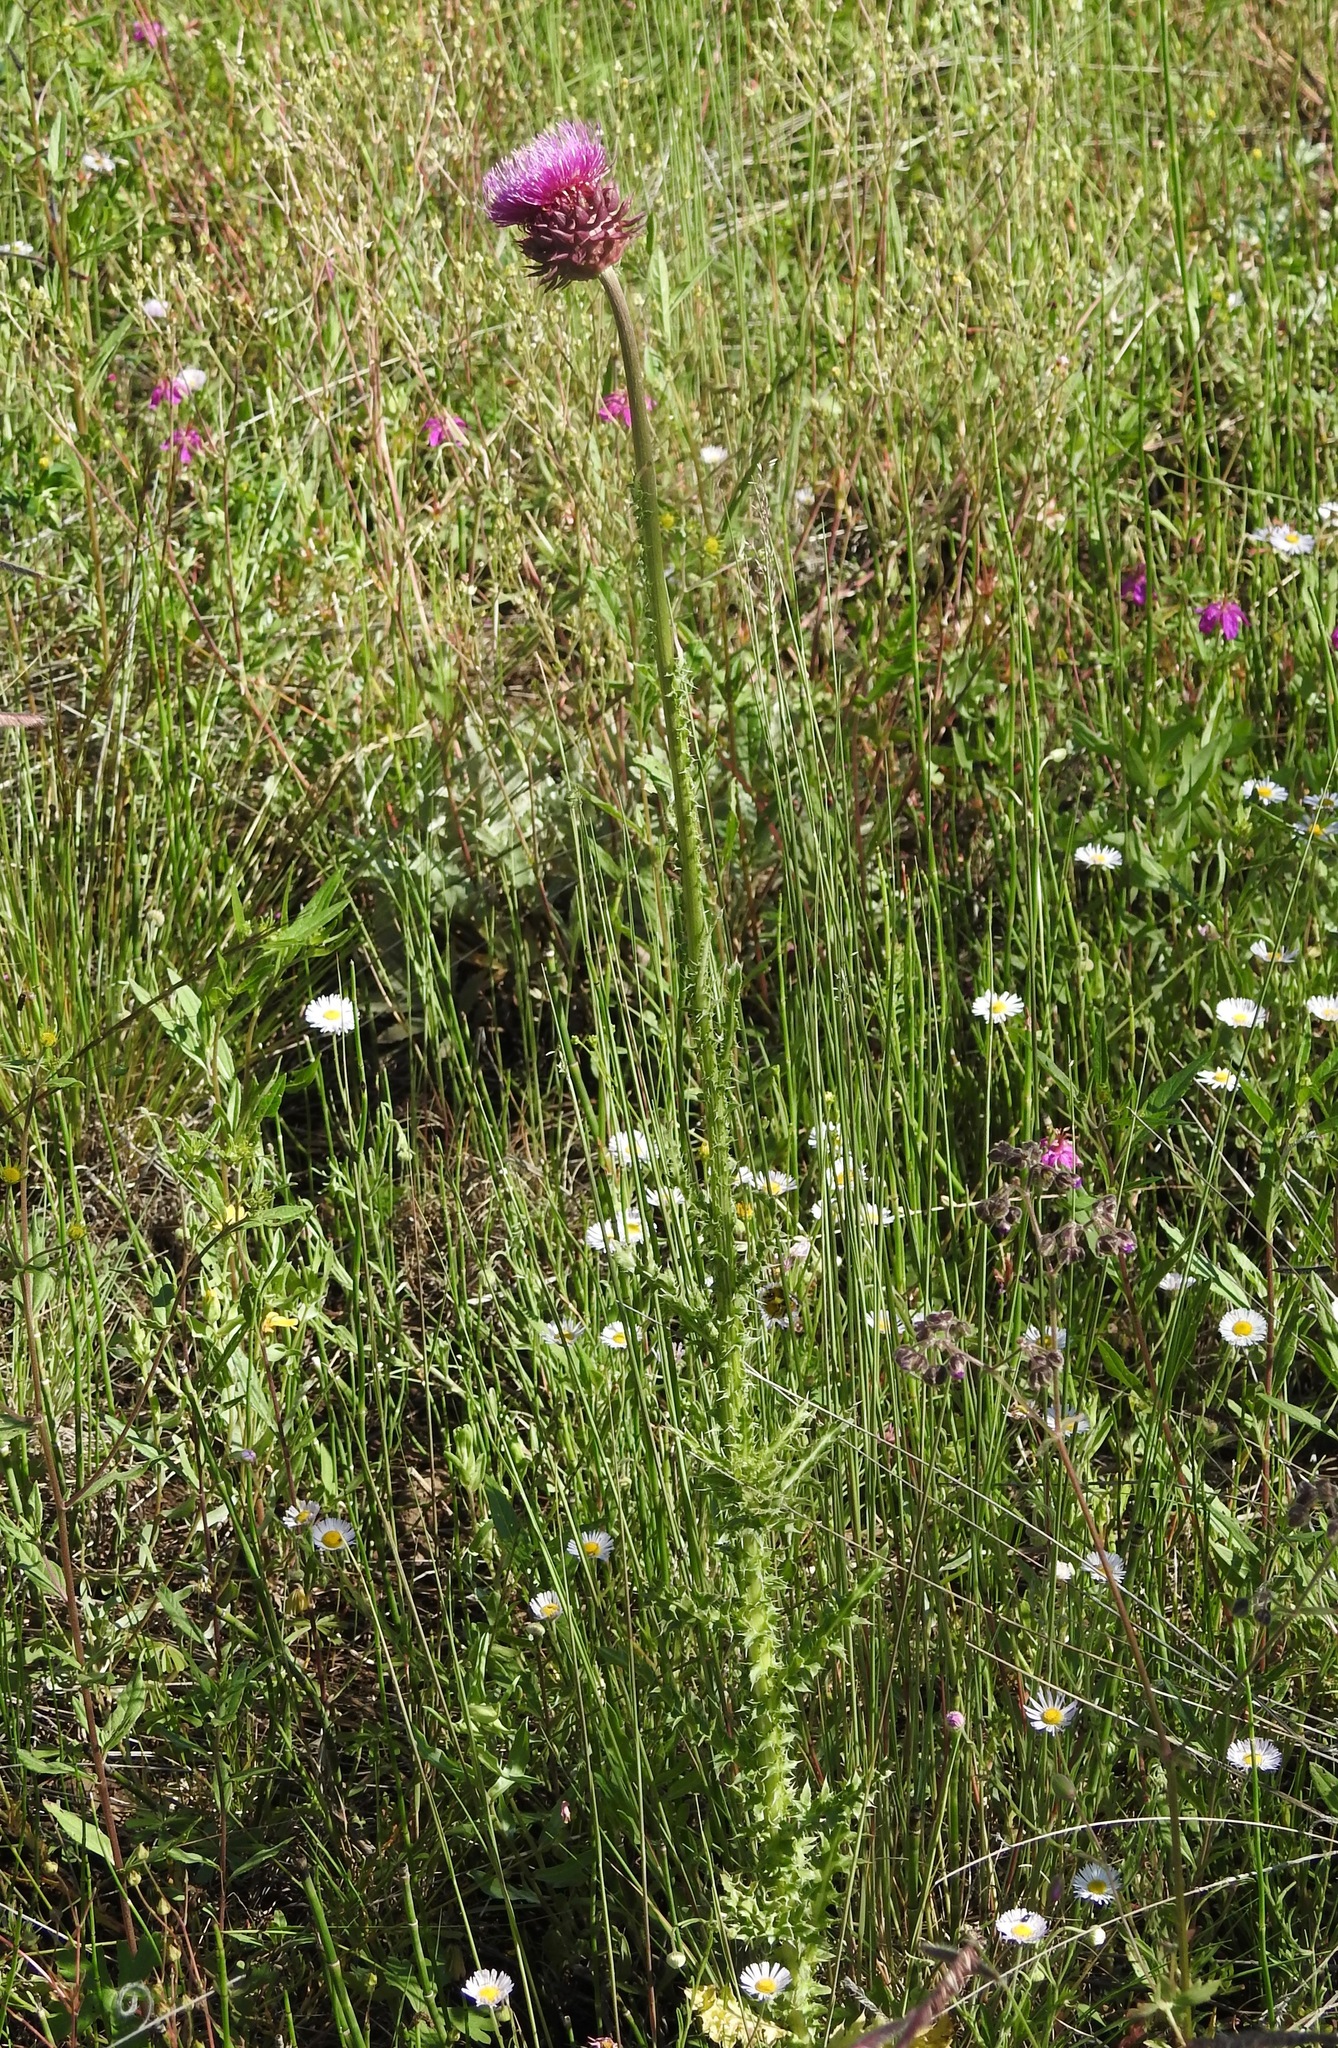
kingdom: Plantae
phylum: Tracheophyta
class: Magnoliopsida
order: Asterales
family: Asteraceae
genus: Carduus
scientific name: Carduus nutans
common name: Musk thistle
